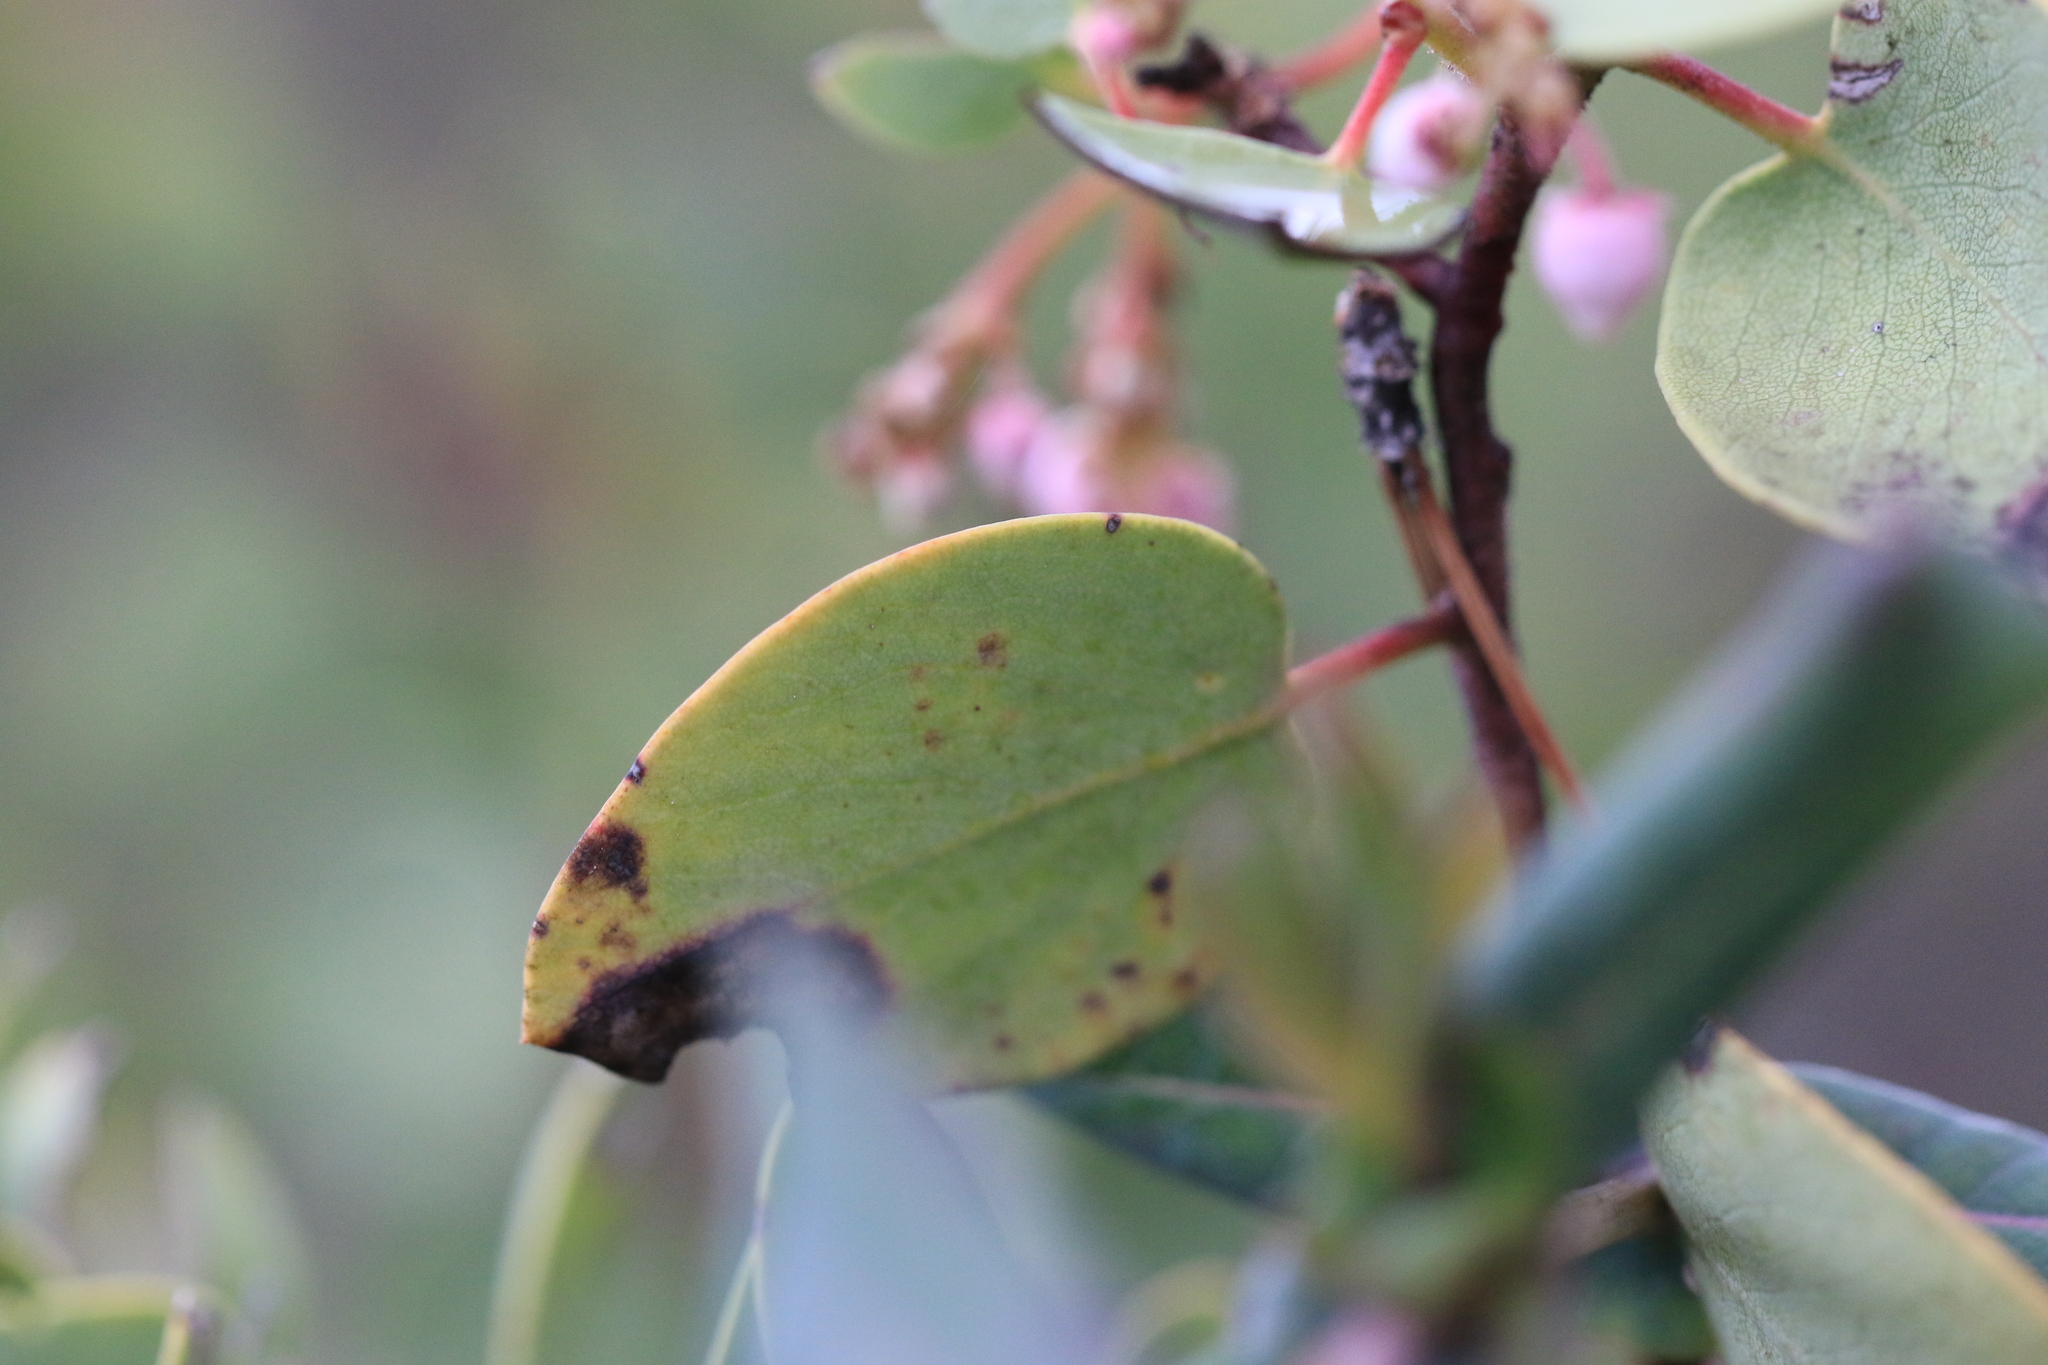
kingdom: Plantae
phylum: Tracheophyta
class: Magnoliopsida
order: Ericales
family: Ericaceae
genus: Arctostaphylos
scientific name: Arctostaphylos viscida
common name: White-leaf manzanita
